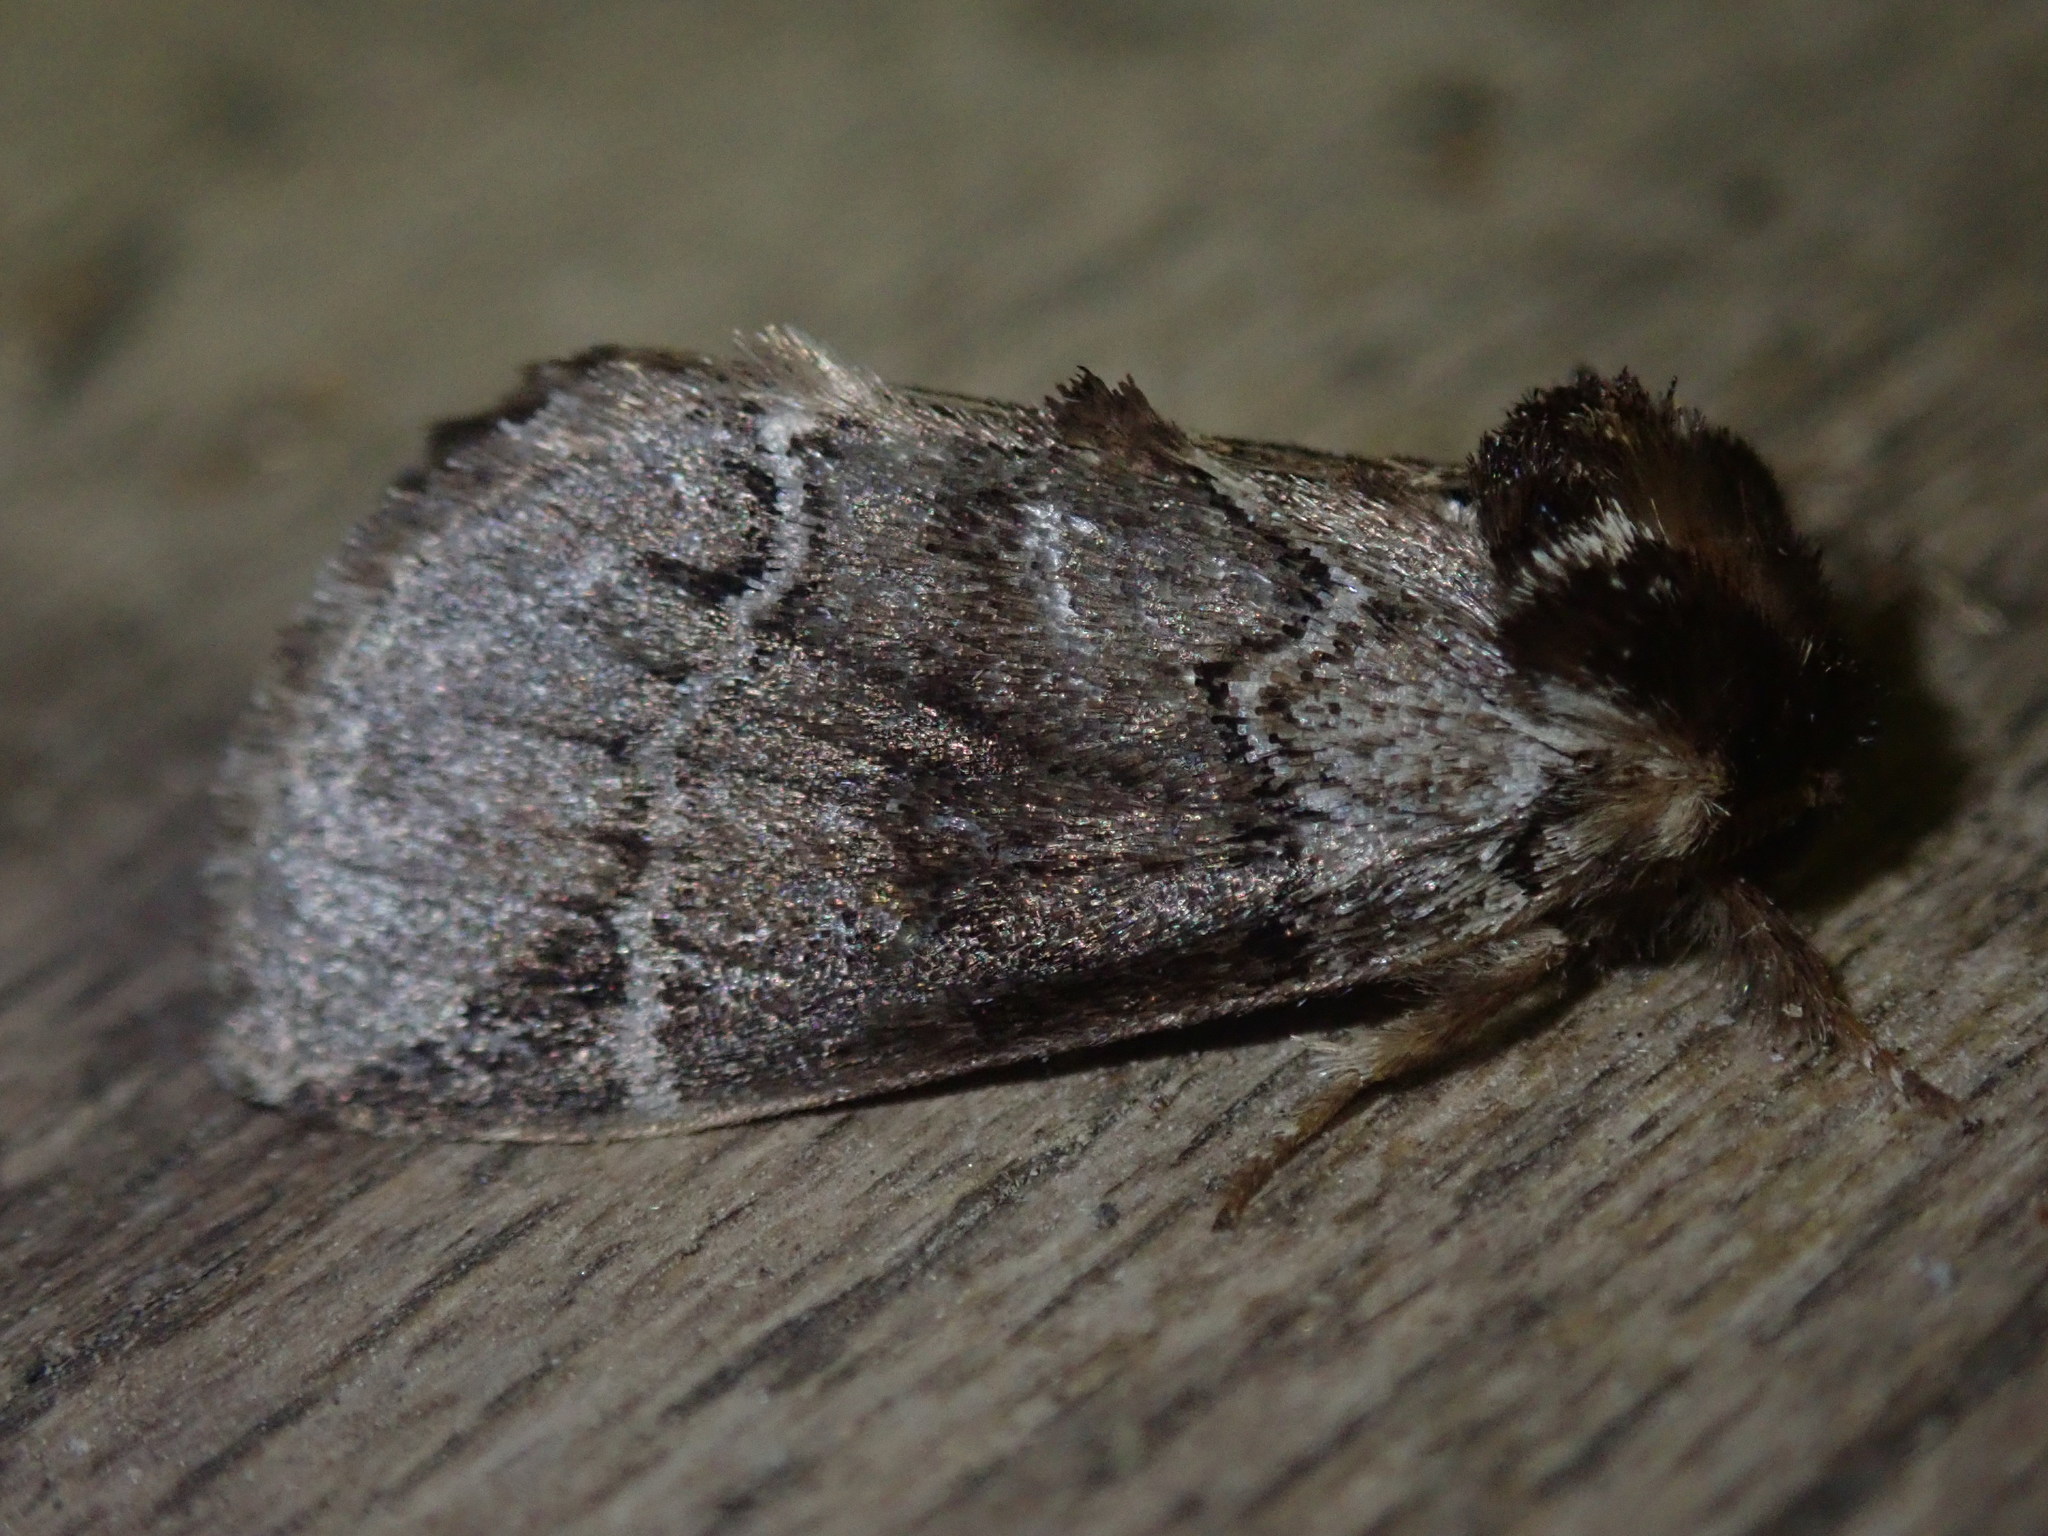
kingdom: Animalia
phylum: Arthropoda
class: Insecta
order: Lepidoptera
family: Notodontidae
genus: Drymonia
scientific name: Drymonia dodonaea
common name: Marbled brown
